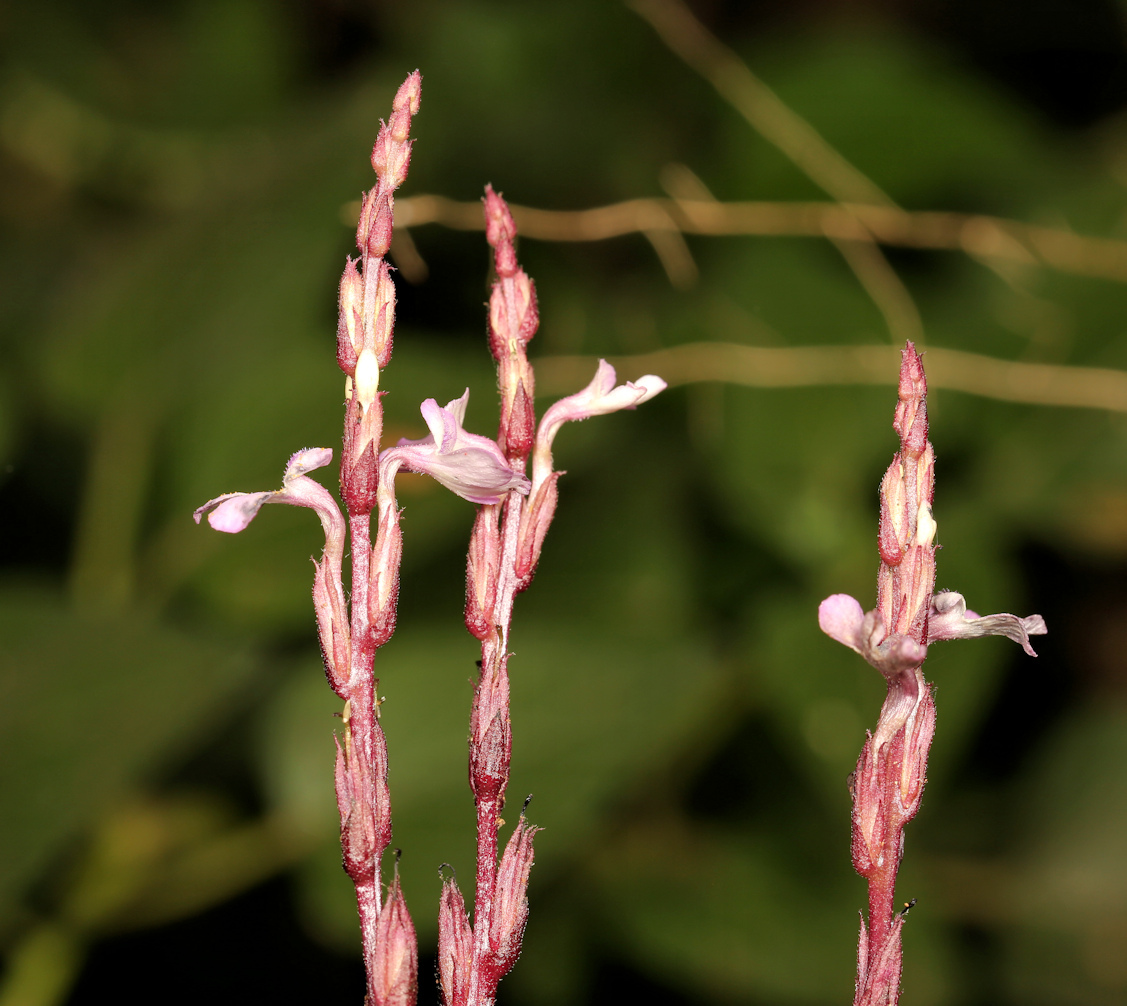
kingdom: Plantae
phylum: Tracheophyta
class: Magnoliopsida
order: Lamiales
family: Orobanchaceae
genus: Striga
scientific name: Striga gesnerioides
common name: Cowpea witchweed
